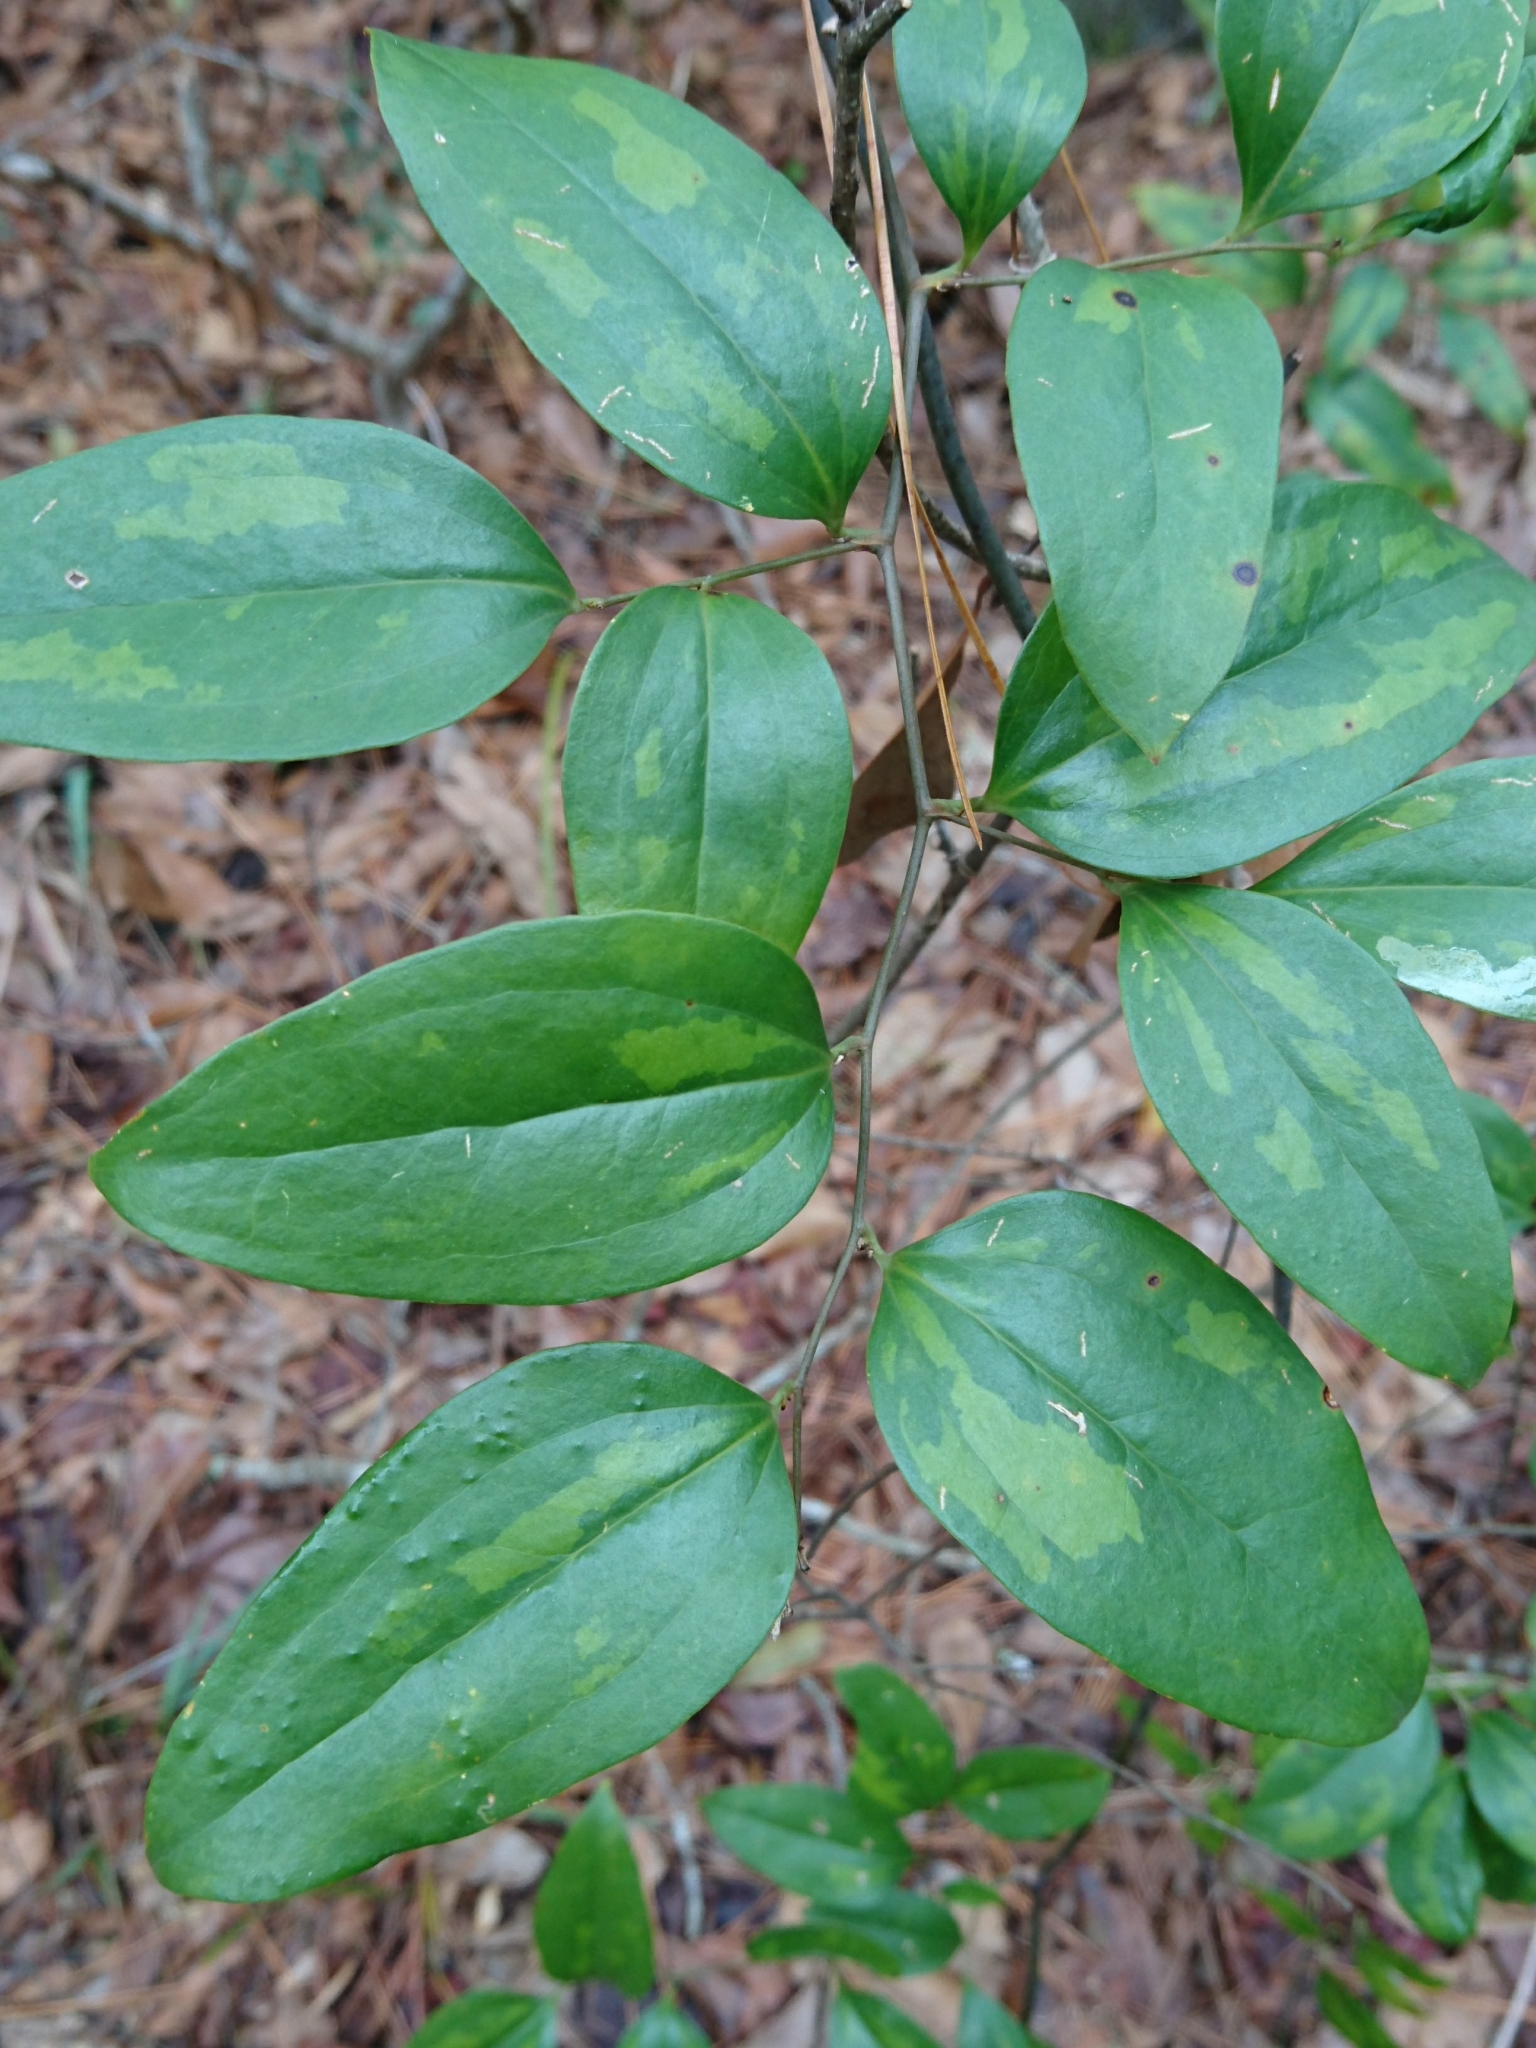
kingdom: Plantae
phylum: Tracheophyta
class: Liliopsida
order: Liliales
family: Smilacaceae
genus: Smilax
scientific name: Smilax maritima
